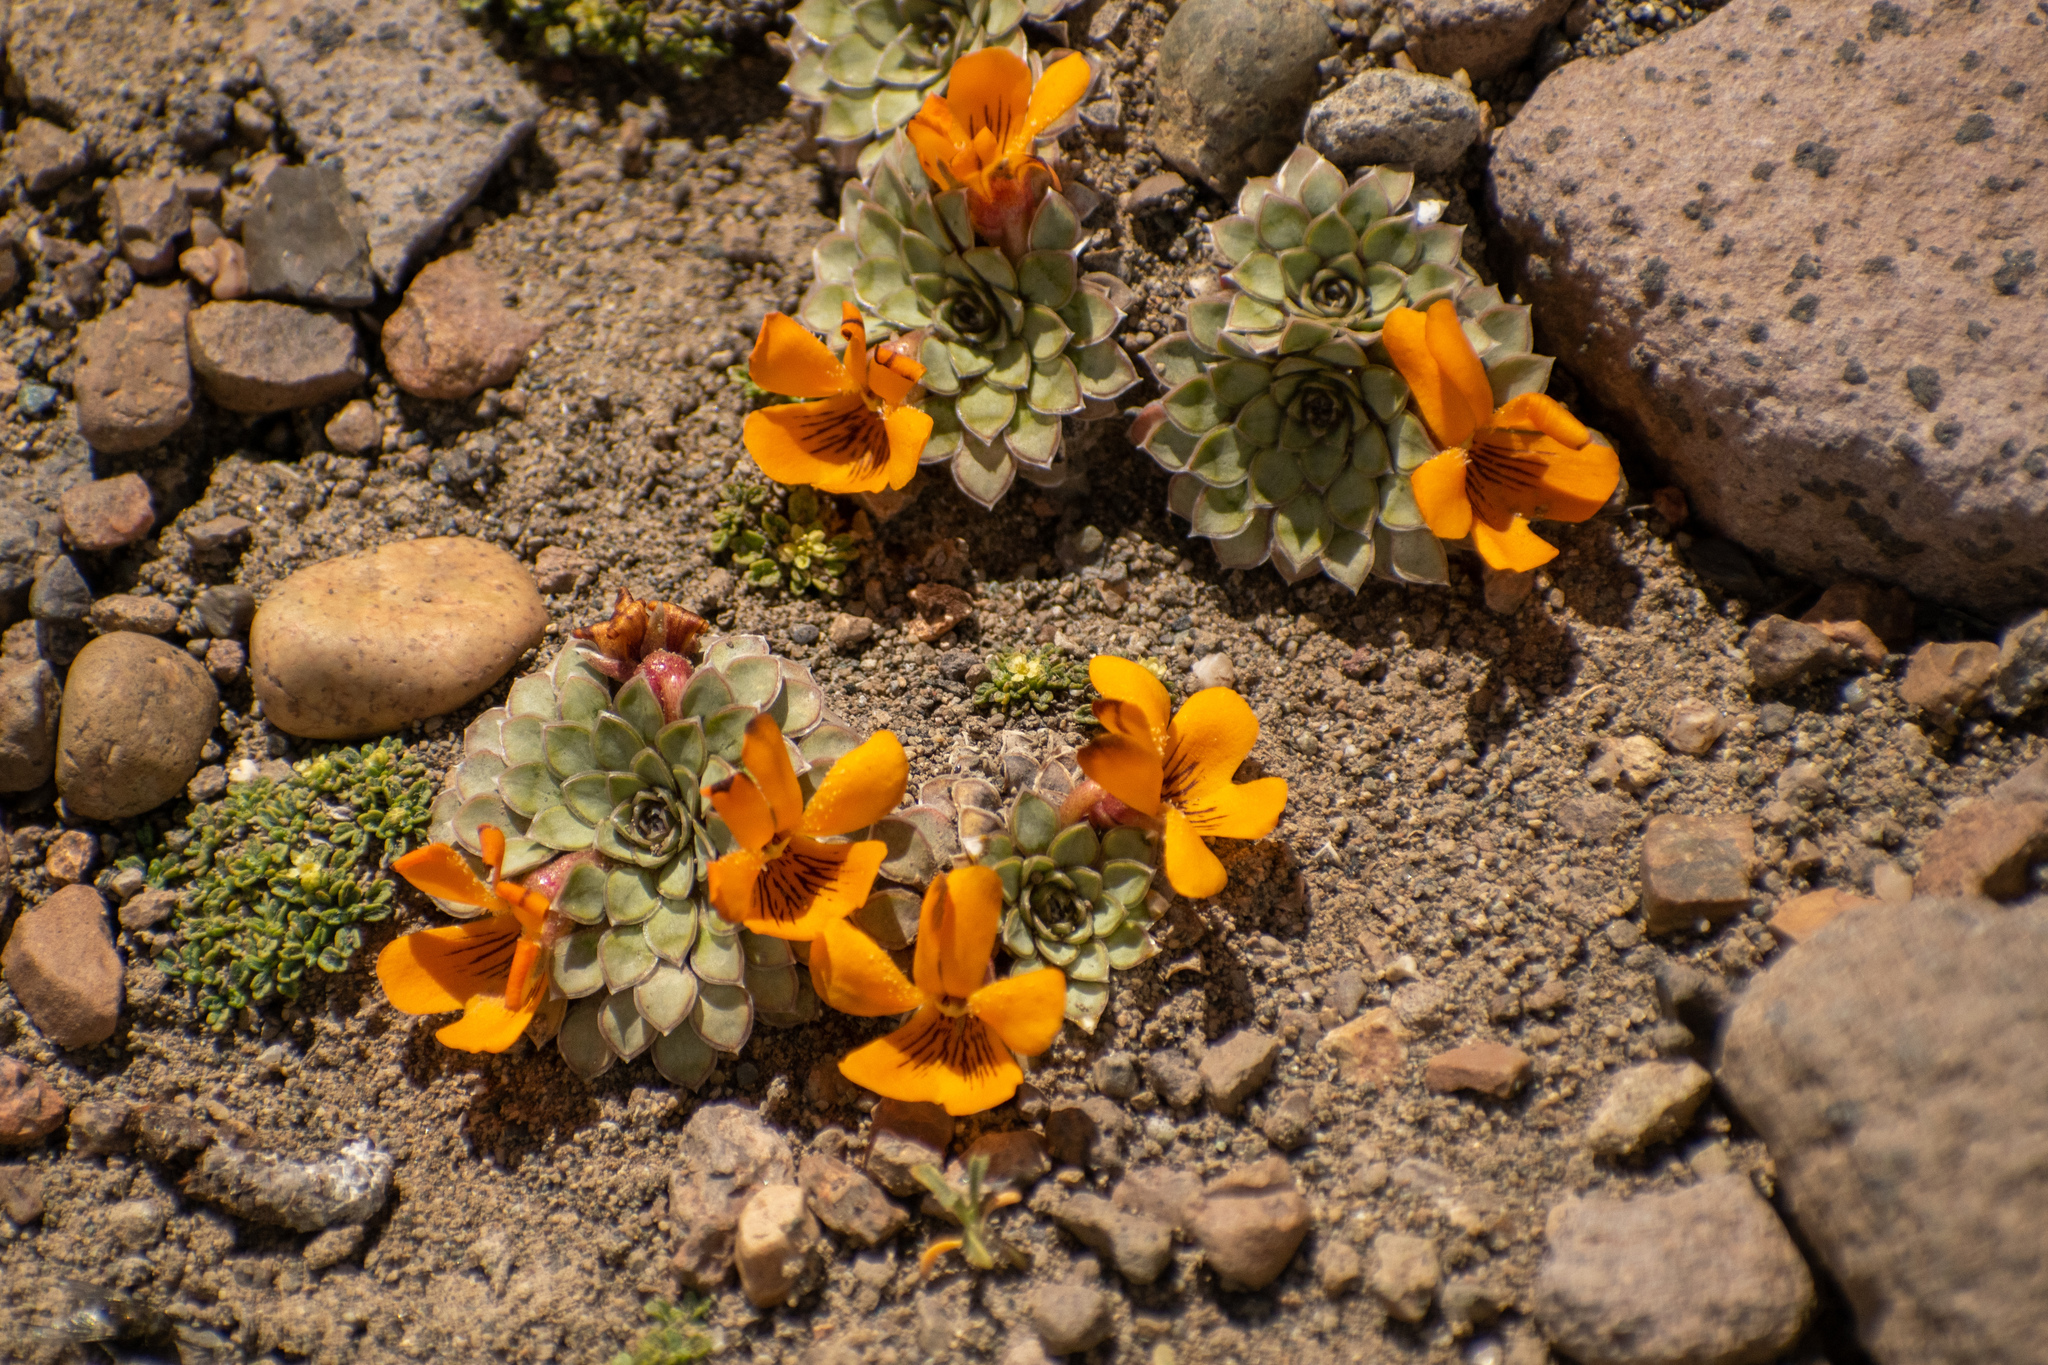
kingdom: Plantae
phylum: Tracheophyta
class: Magnoliopsida
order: Malpighiales
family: Violaceae
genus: Viola
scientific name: Viola auricolor
